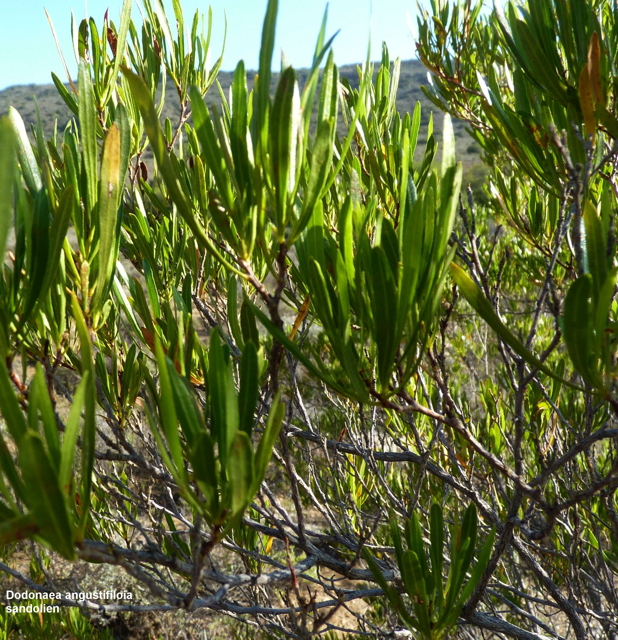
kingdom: Plantae
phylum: Tracheophyta
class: Magnoliopsida
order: Sapindales
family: Sapindaceae
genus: Dodonaea
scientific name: Dodonaea viscosa
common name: Hopbush
